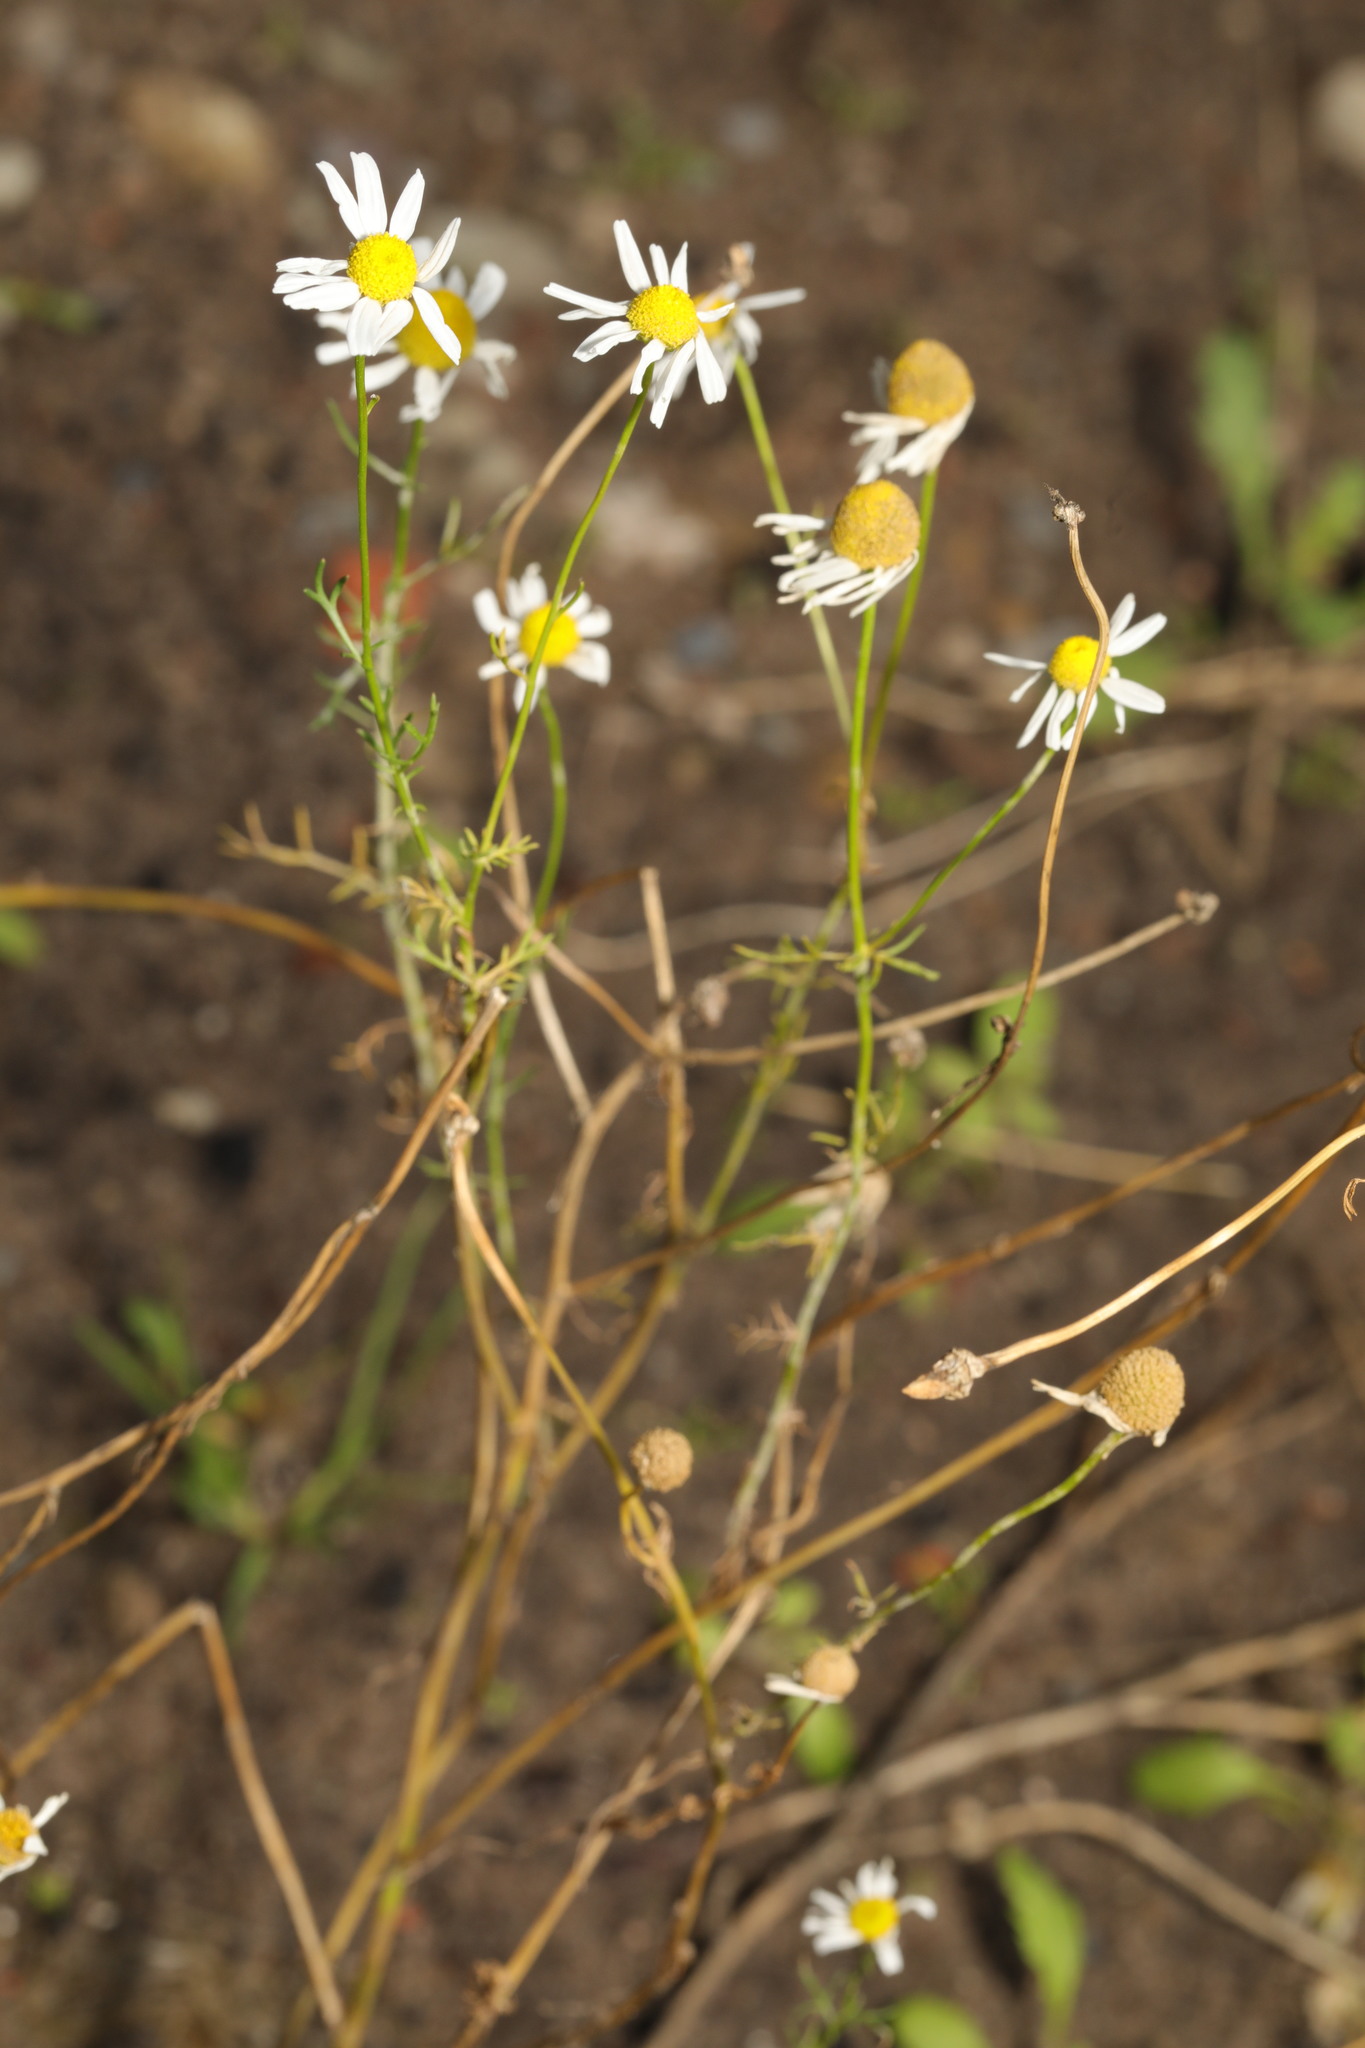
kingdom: Plantae
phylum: Tracheophyta
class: Magnoliopsida
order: Asterales
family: Asteraceae
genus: Tripleurospermum
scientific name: Tripleurospermum inodorum
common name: Scentless mayweed
